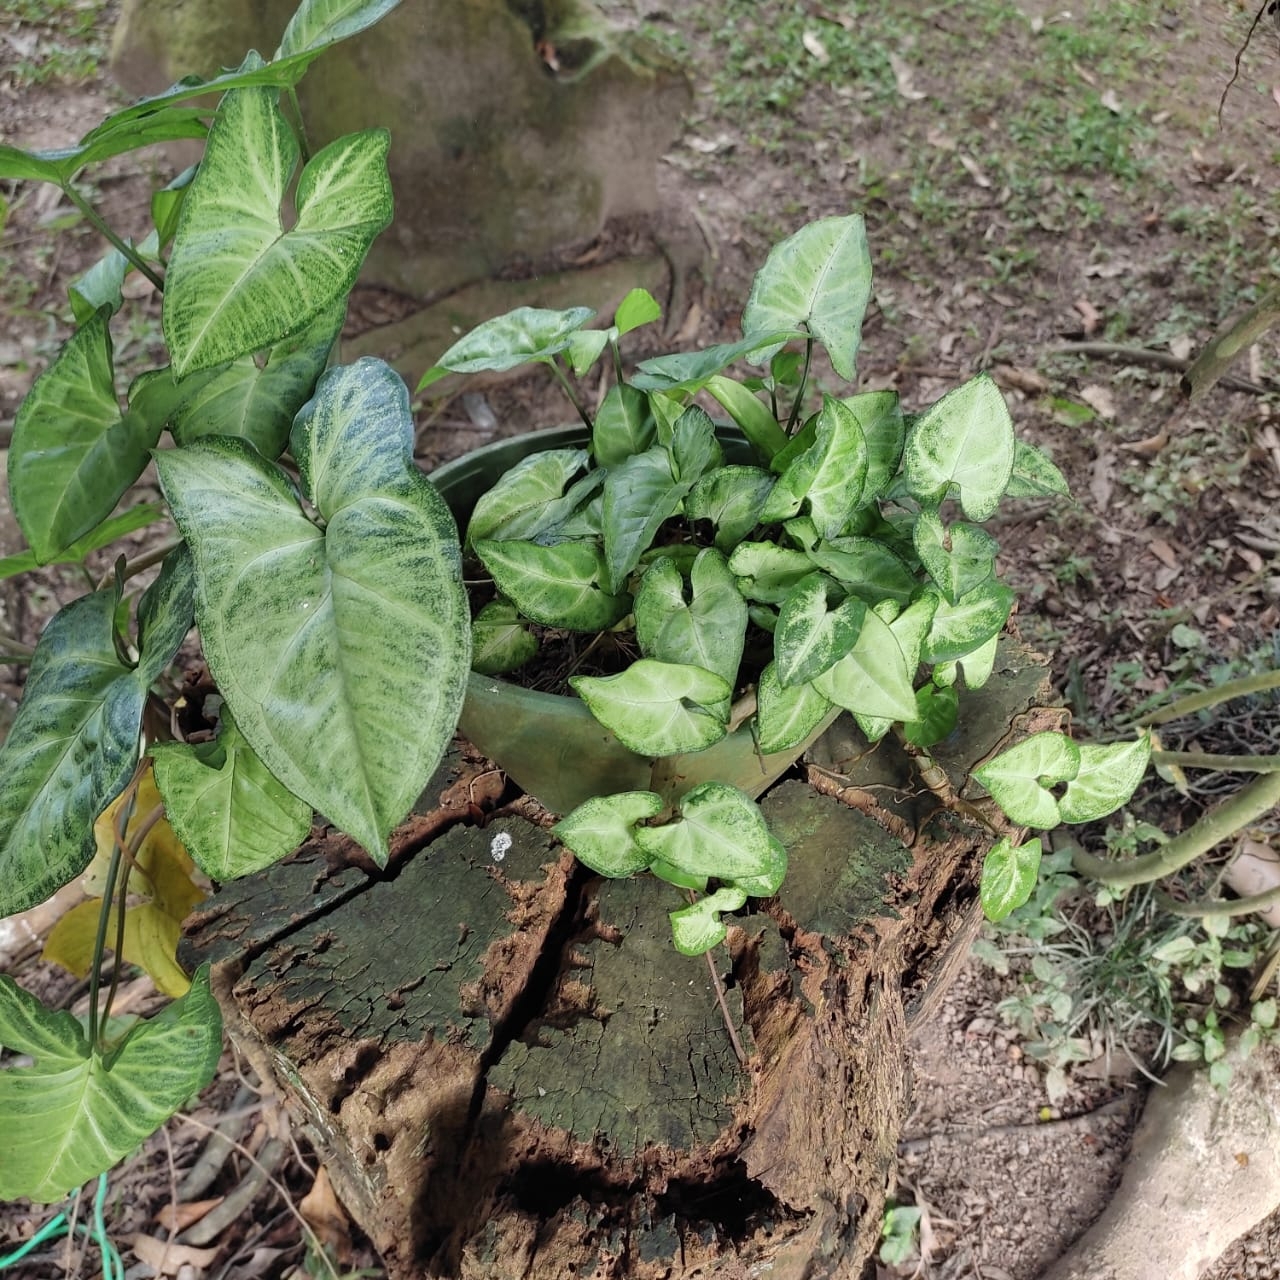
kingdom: Plantae
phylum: Tracheophyta
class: Liliopsida
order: Alismatales
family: Araceae
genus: Syngonium
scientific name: Syngonium podophyllum
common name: American evergreen
